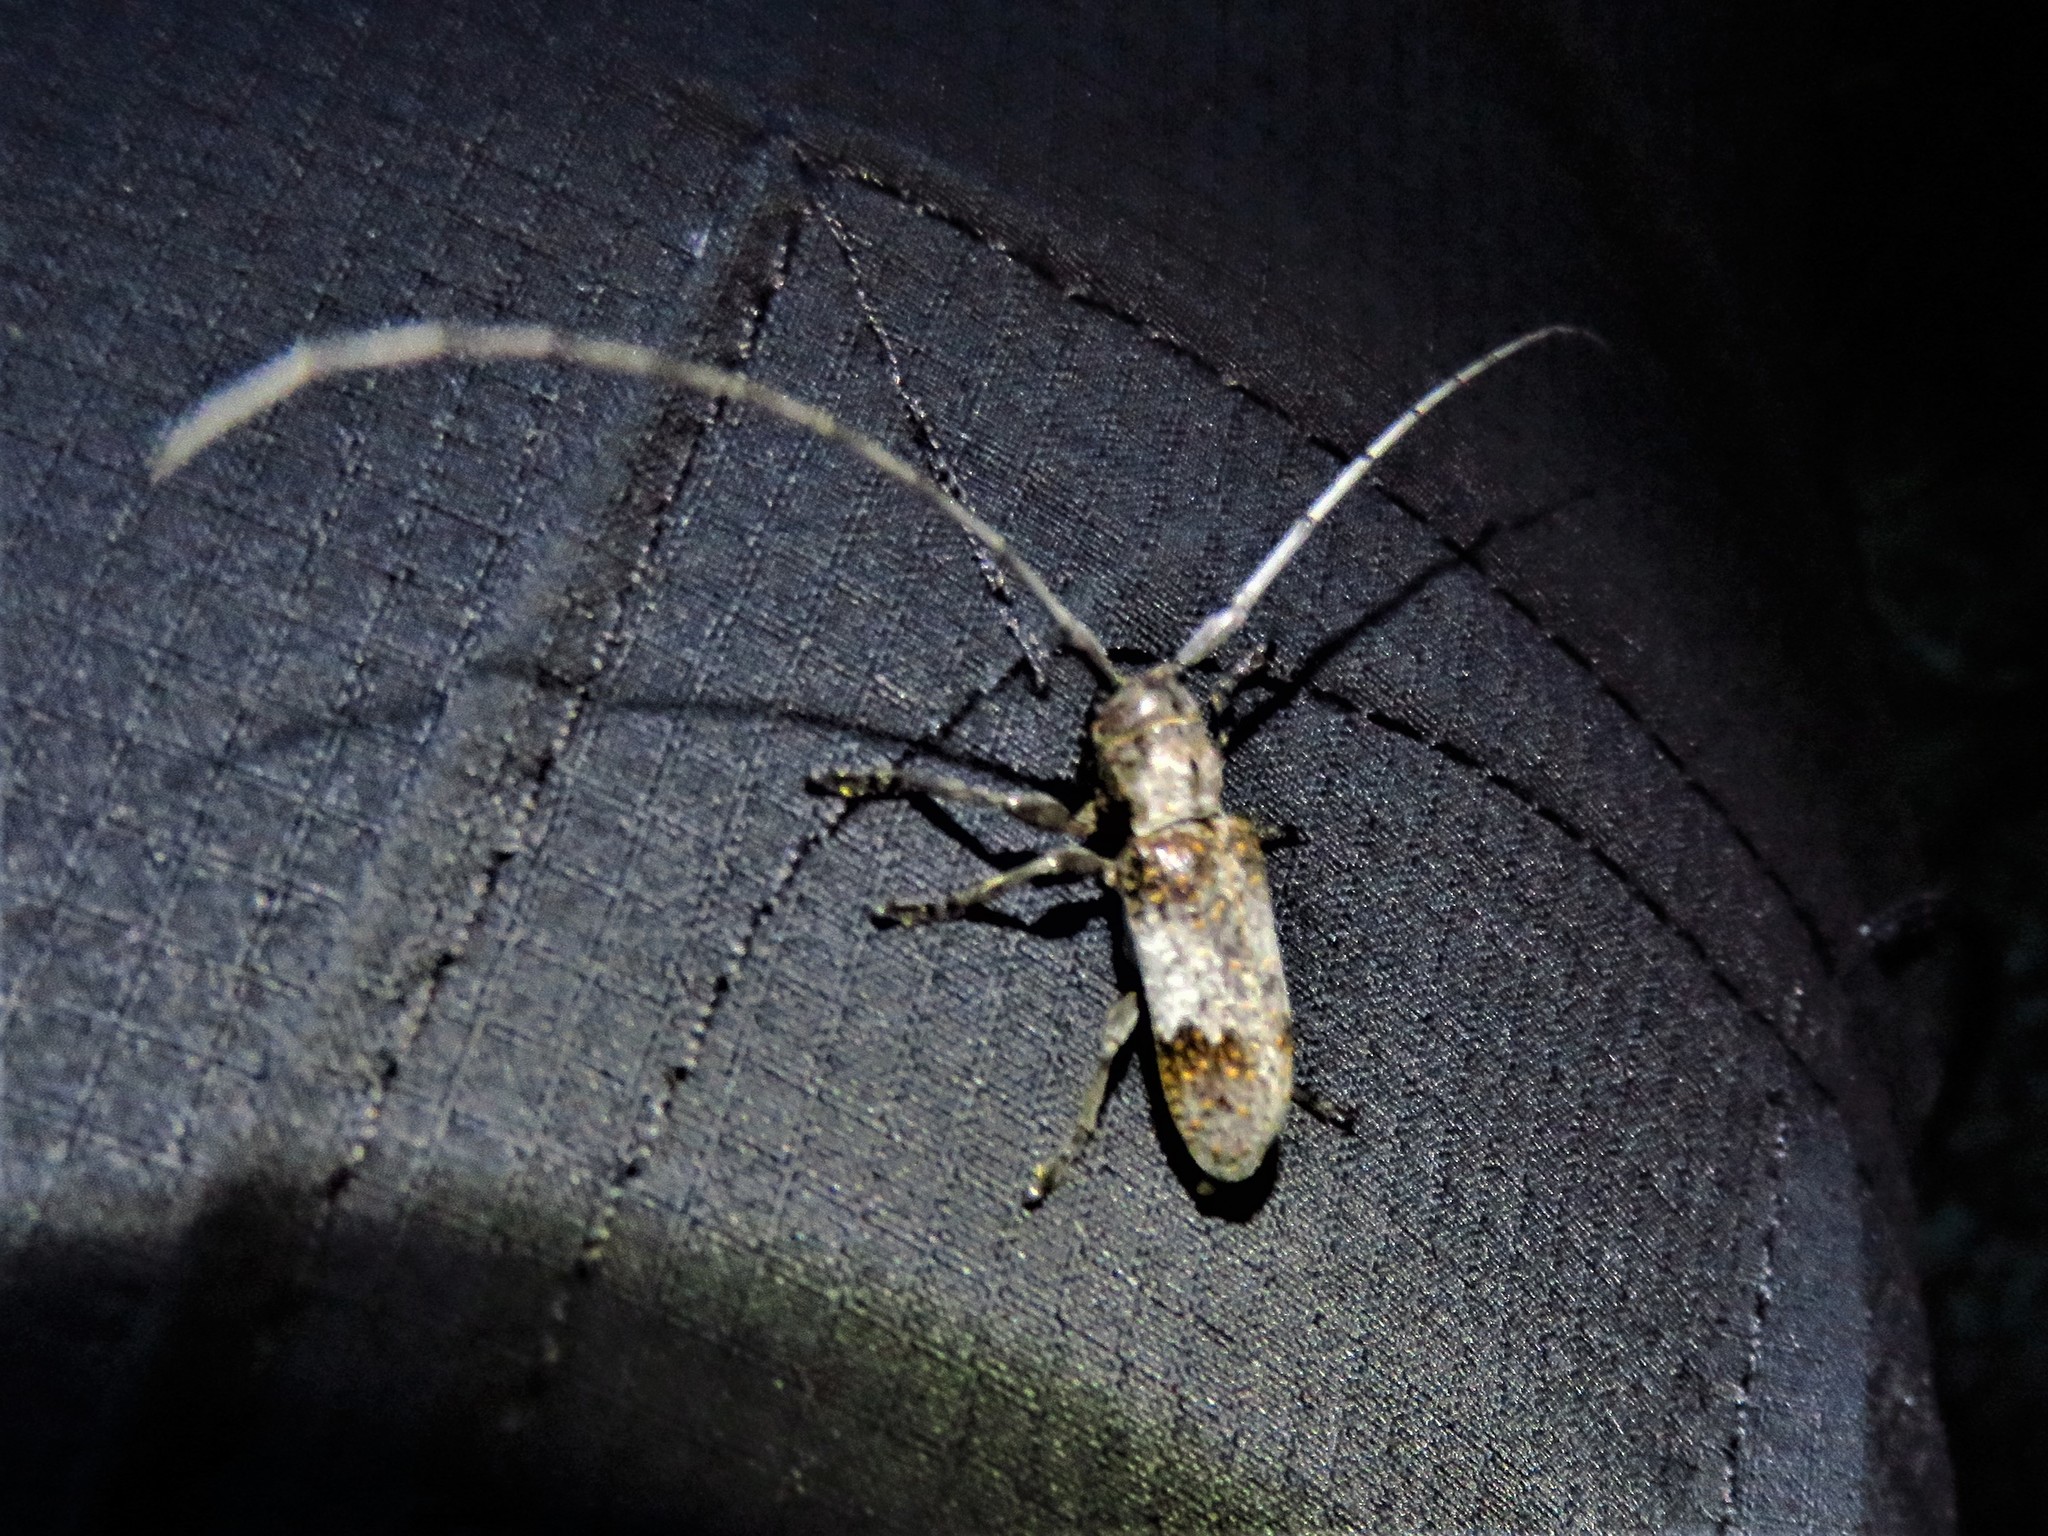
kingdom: Animalia
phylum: Arthropoda
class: Insecta
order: Coleoptera
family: Cerambycidae
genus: Oncideres
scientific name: Oncideres cingulata
